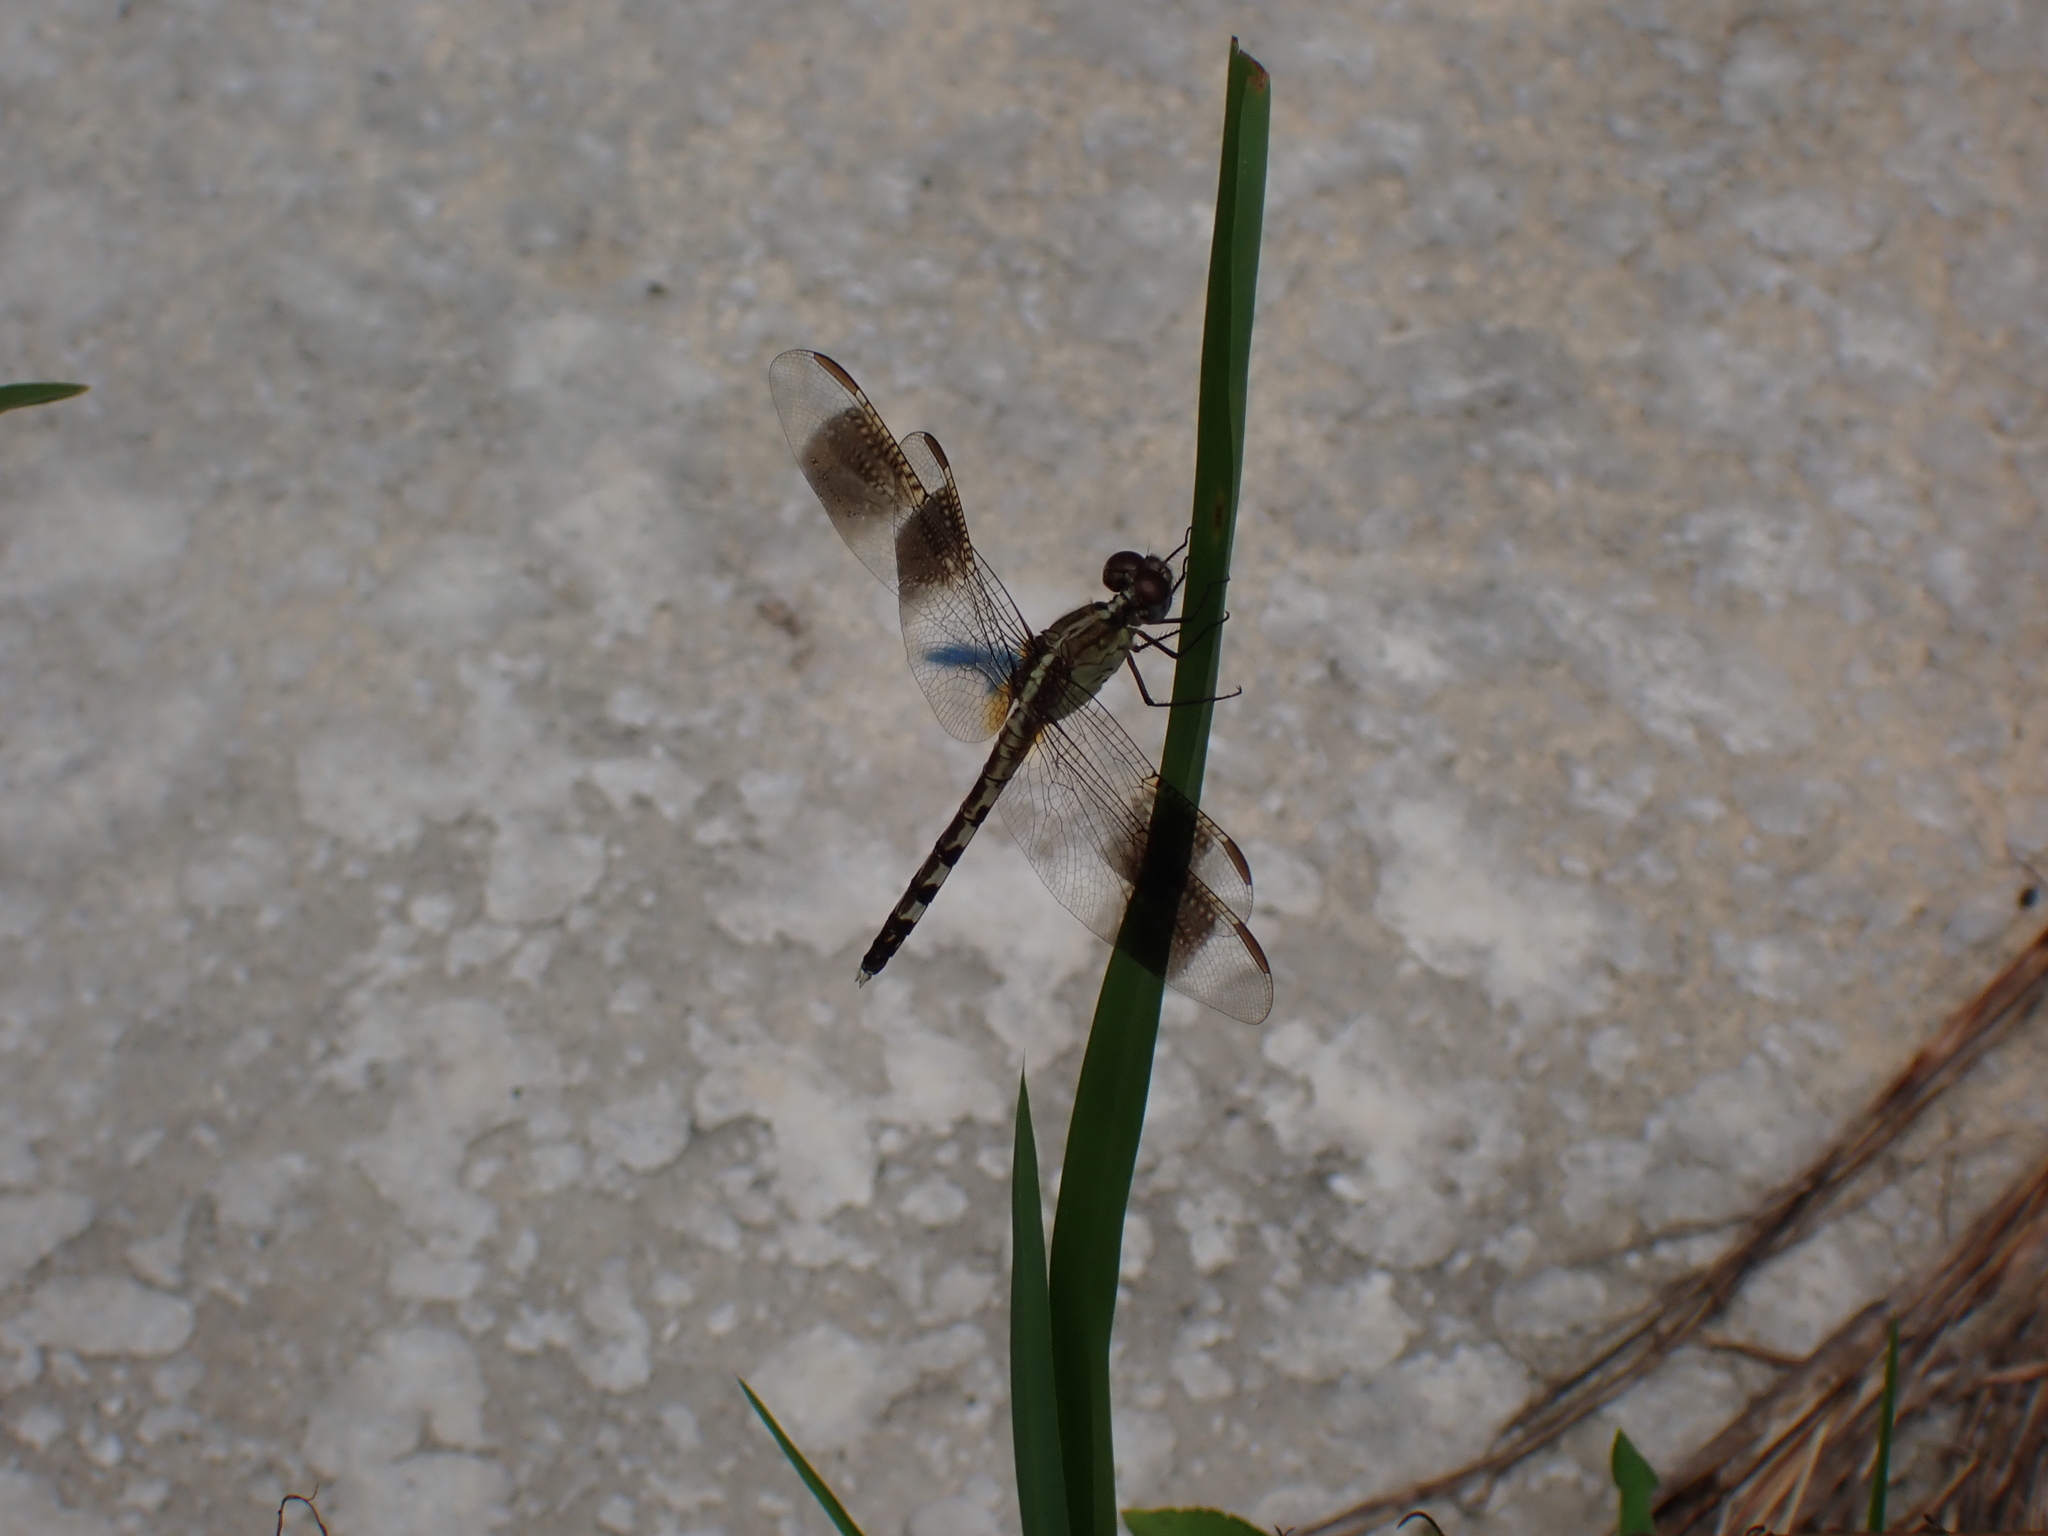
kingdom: Animalia
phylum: Arthropoda
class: Insecta
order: Odonata
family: Libellulidae
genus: Erythrodiplax
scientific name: Erythrodiplax umbrata
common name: Band-winged dragonlet
